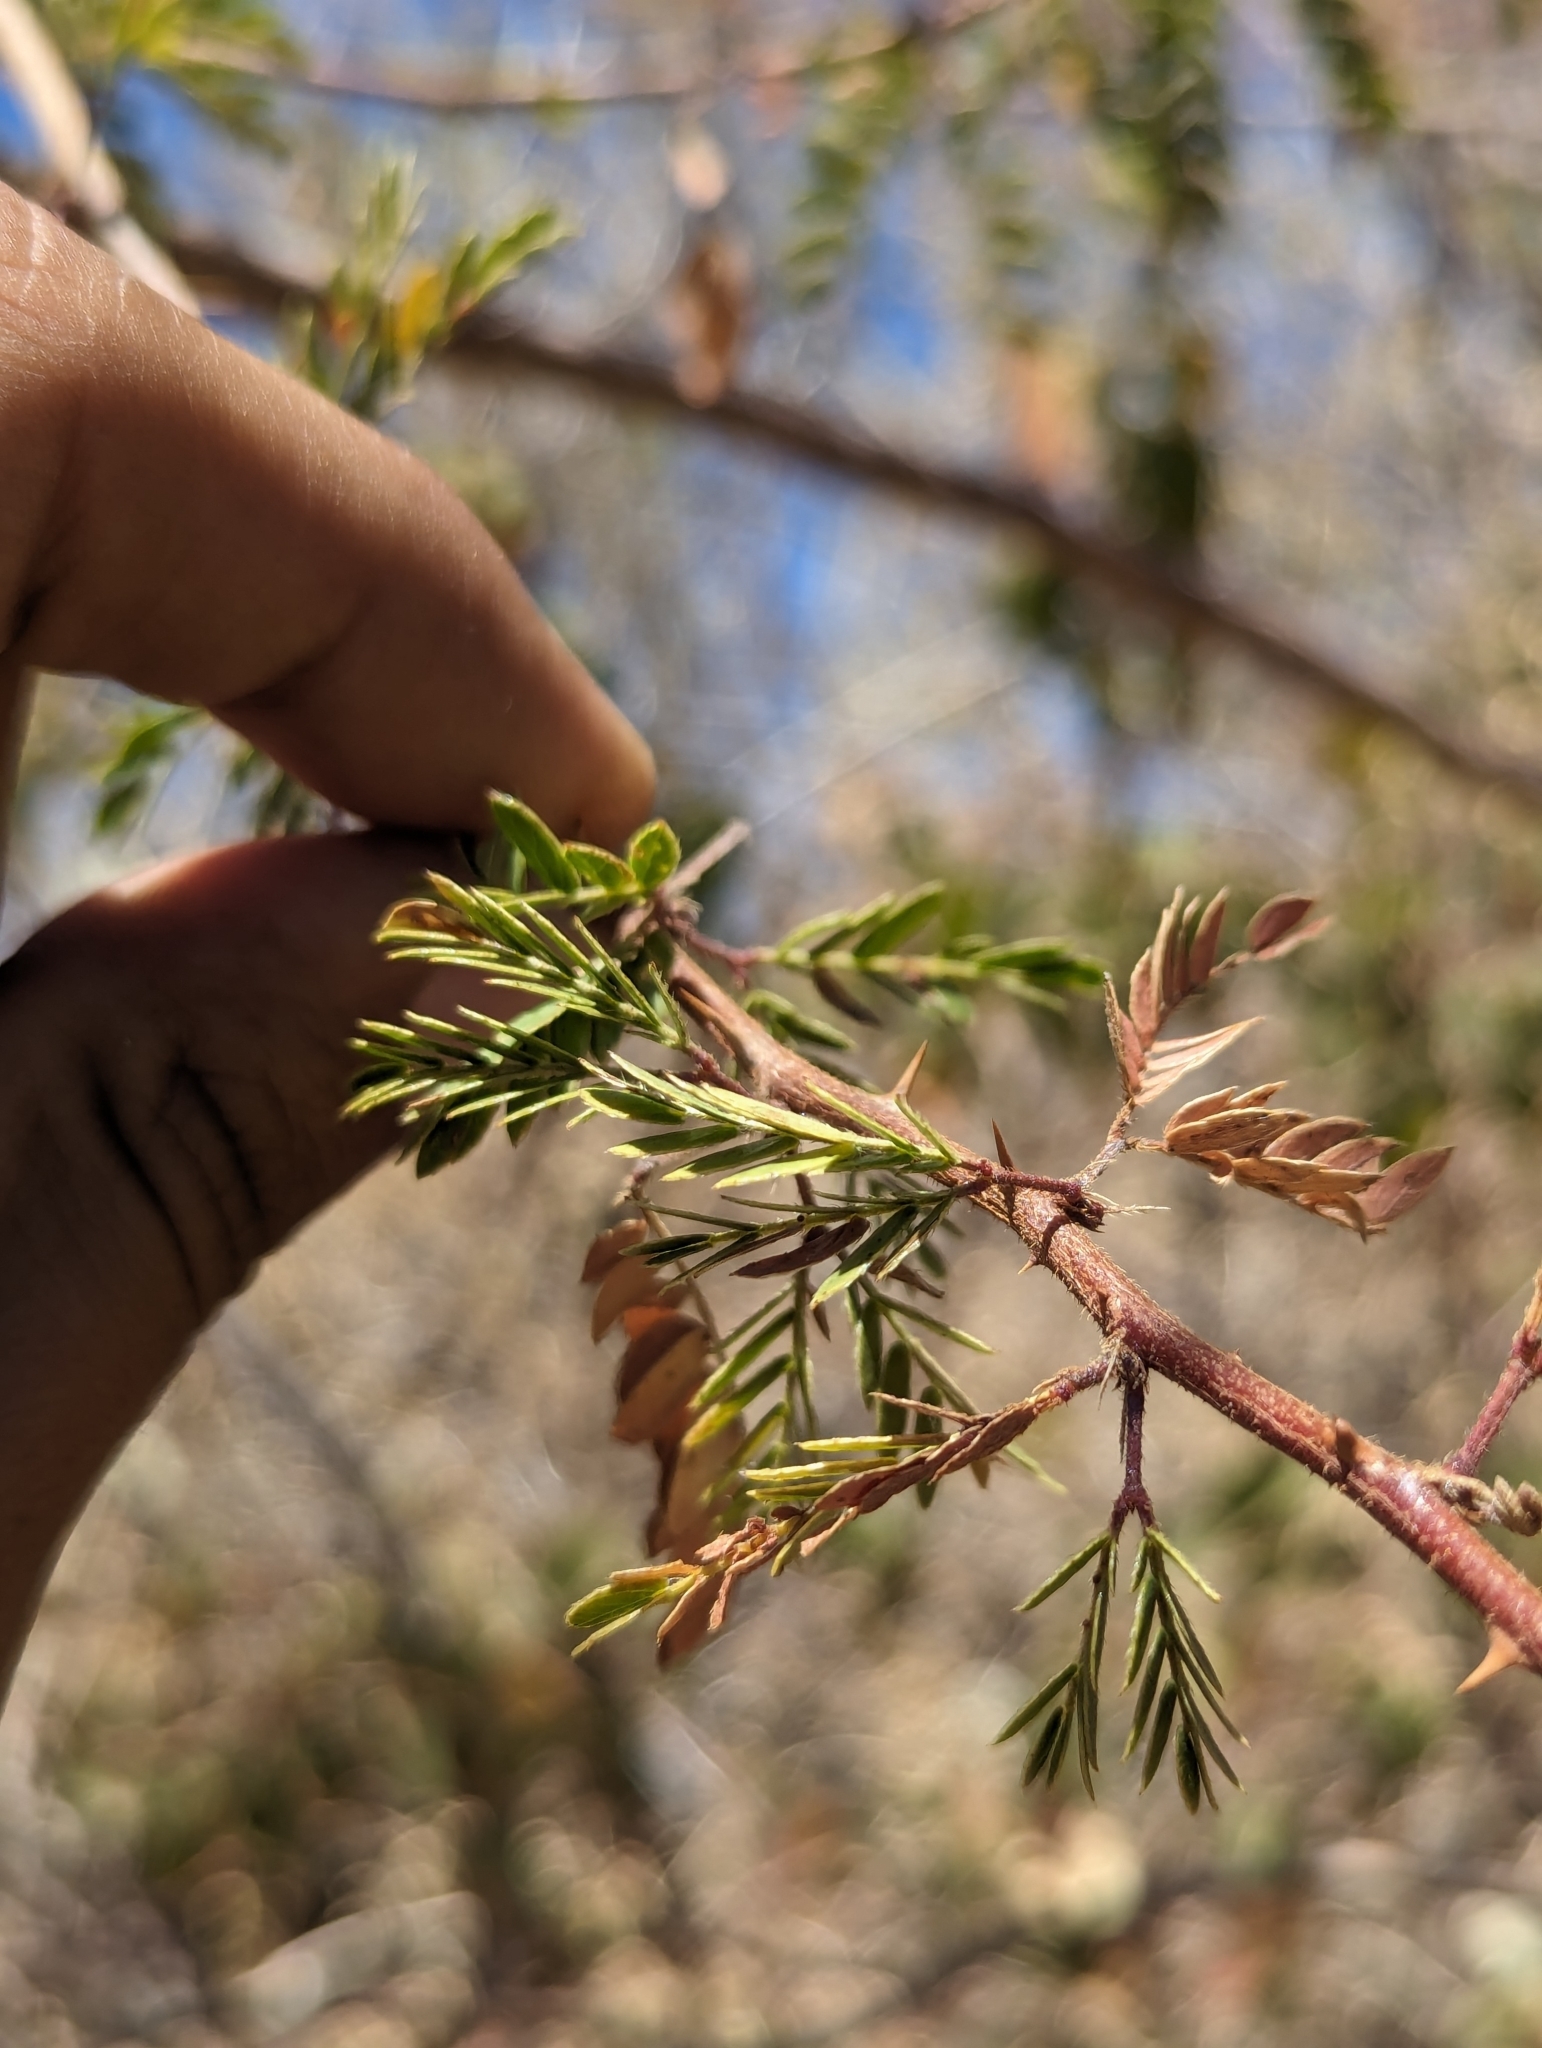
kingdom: Plantae
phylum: Tracheophyta
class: Magnoliopsida
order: Fabales
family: Fabaceae
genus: Mimosa
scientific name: Mimosa tricephala
